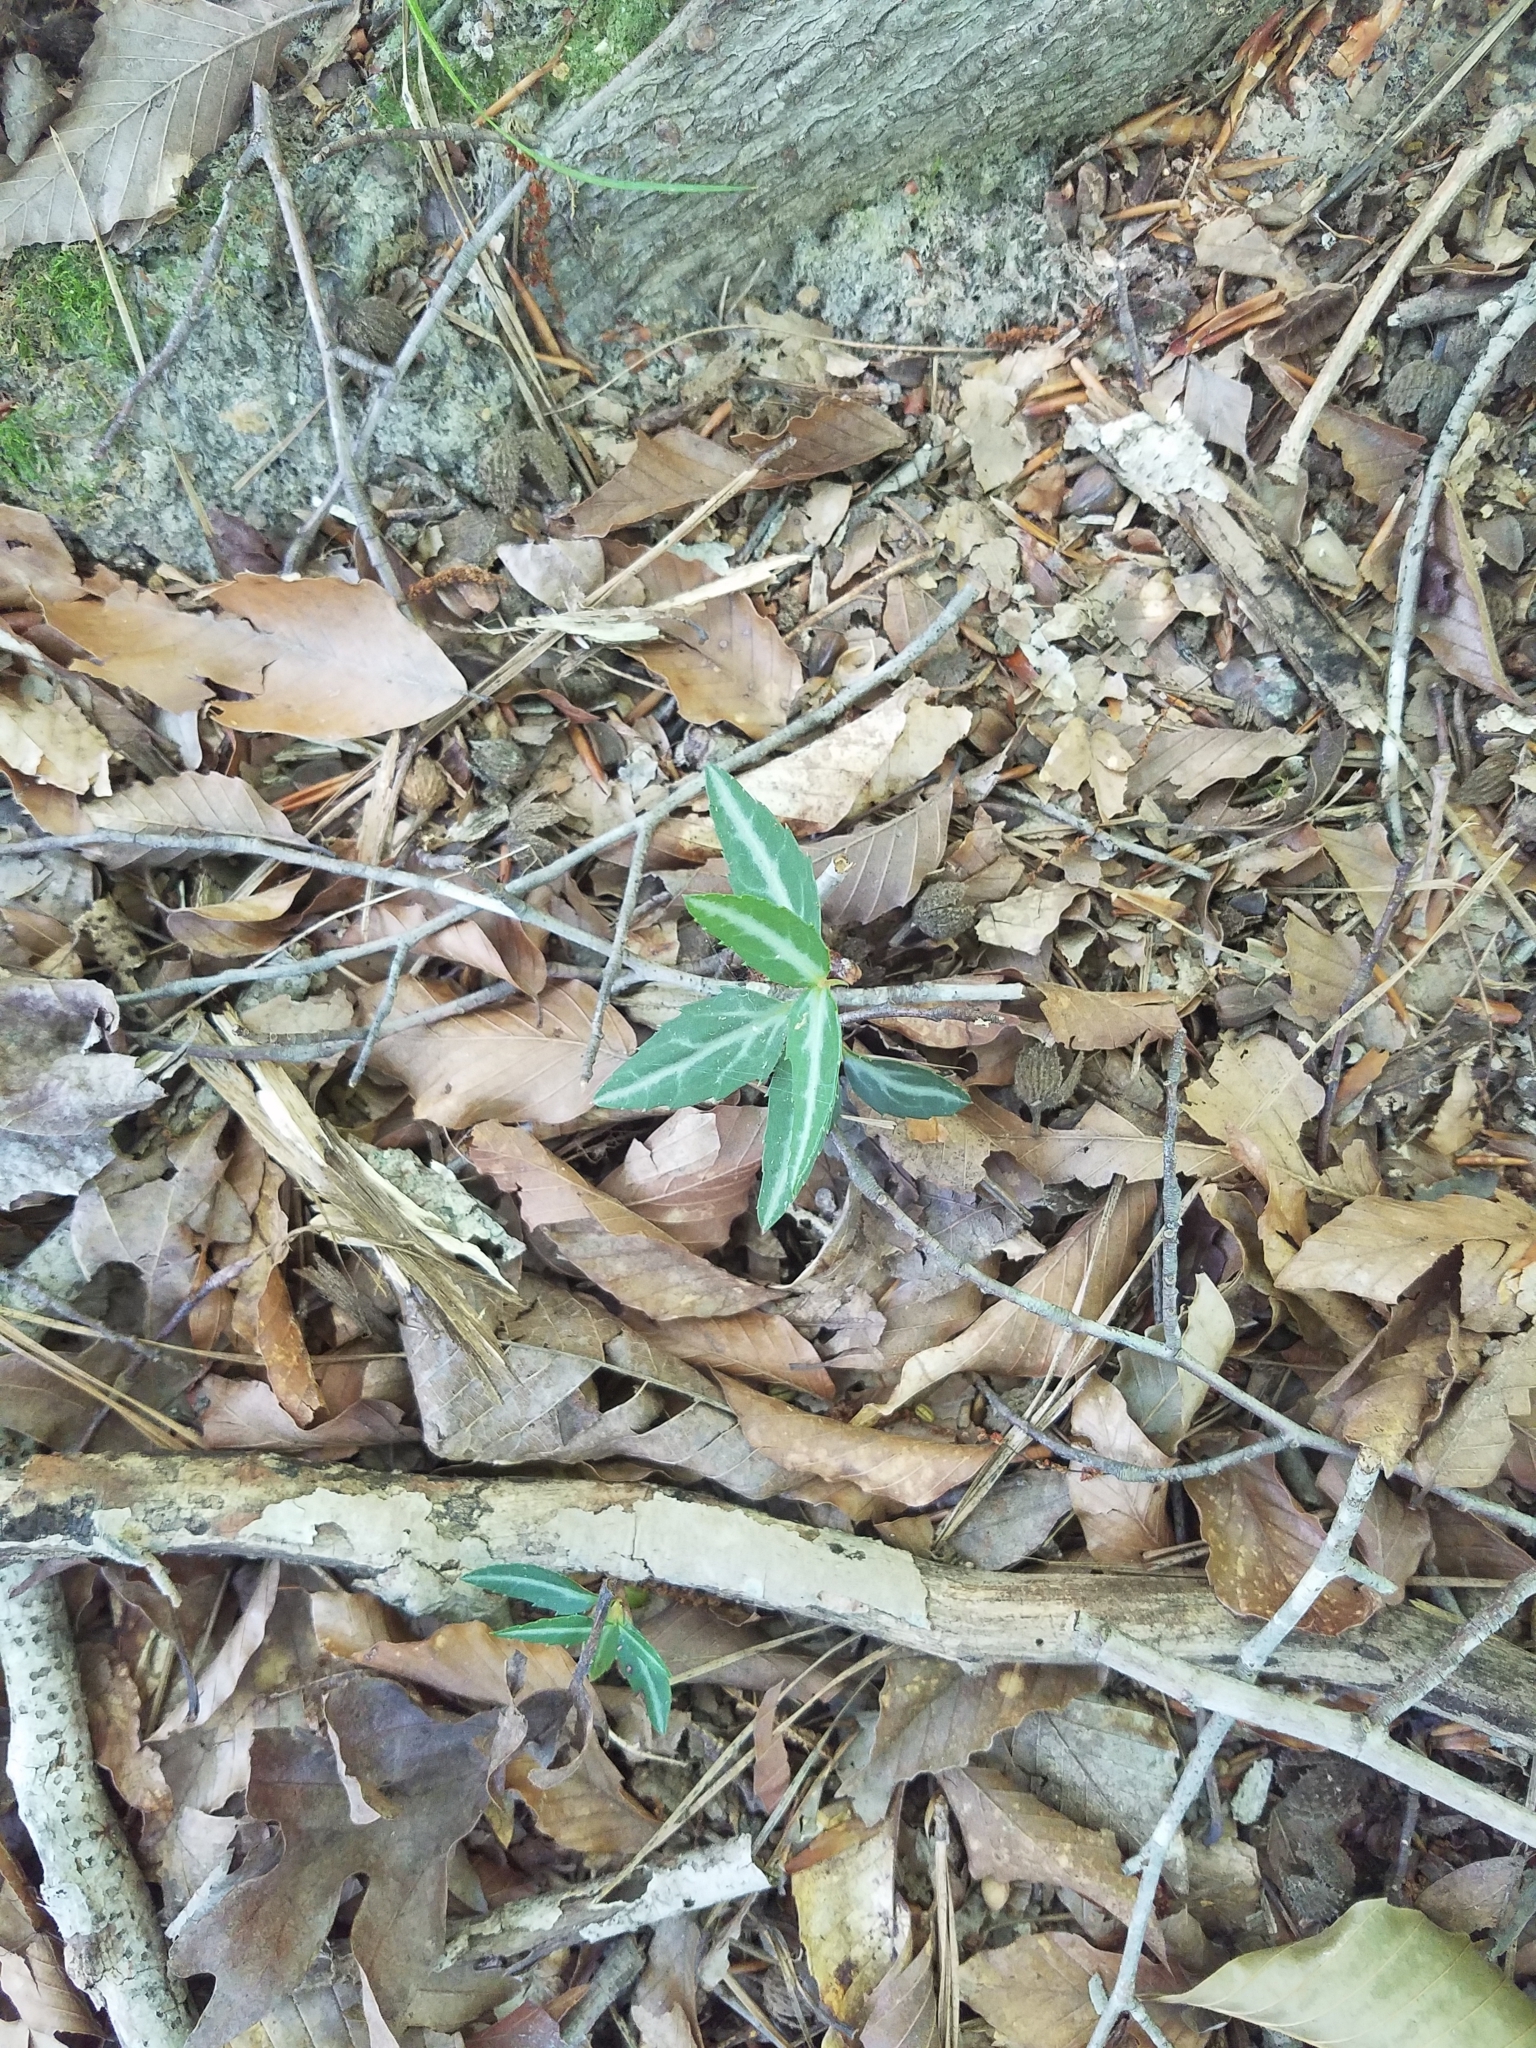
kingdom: Plantae
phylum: Tracheophyta
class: Magnoliopsida
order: Ericales
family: Ericaceae
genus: Chimaphila
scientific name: Chimaphila maculata
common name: Spotted pipsissewa
